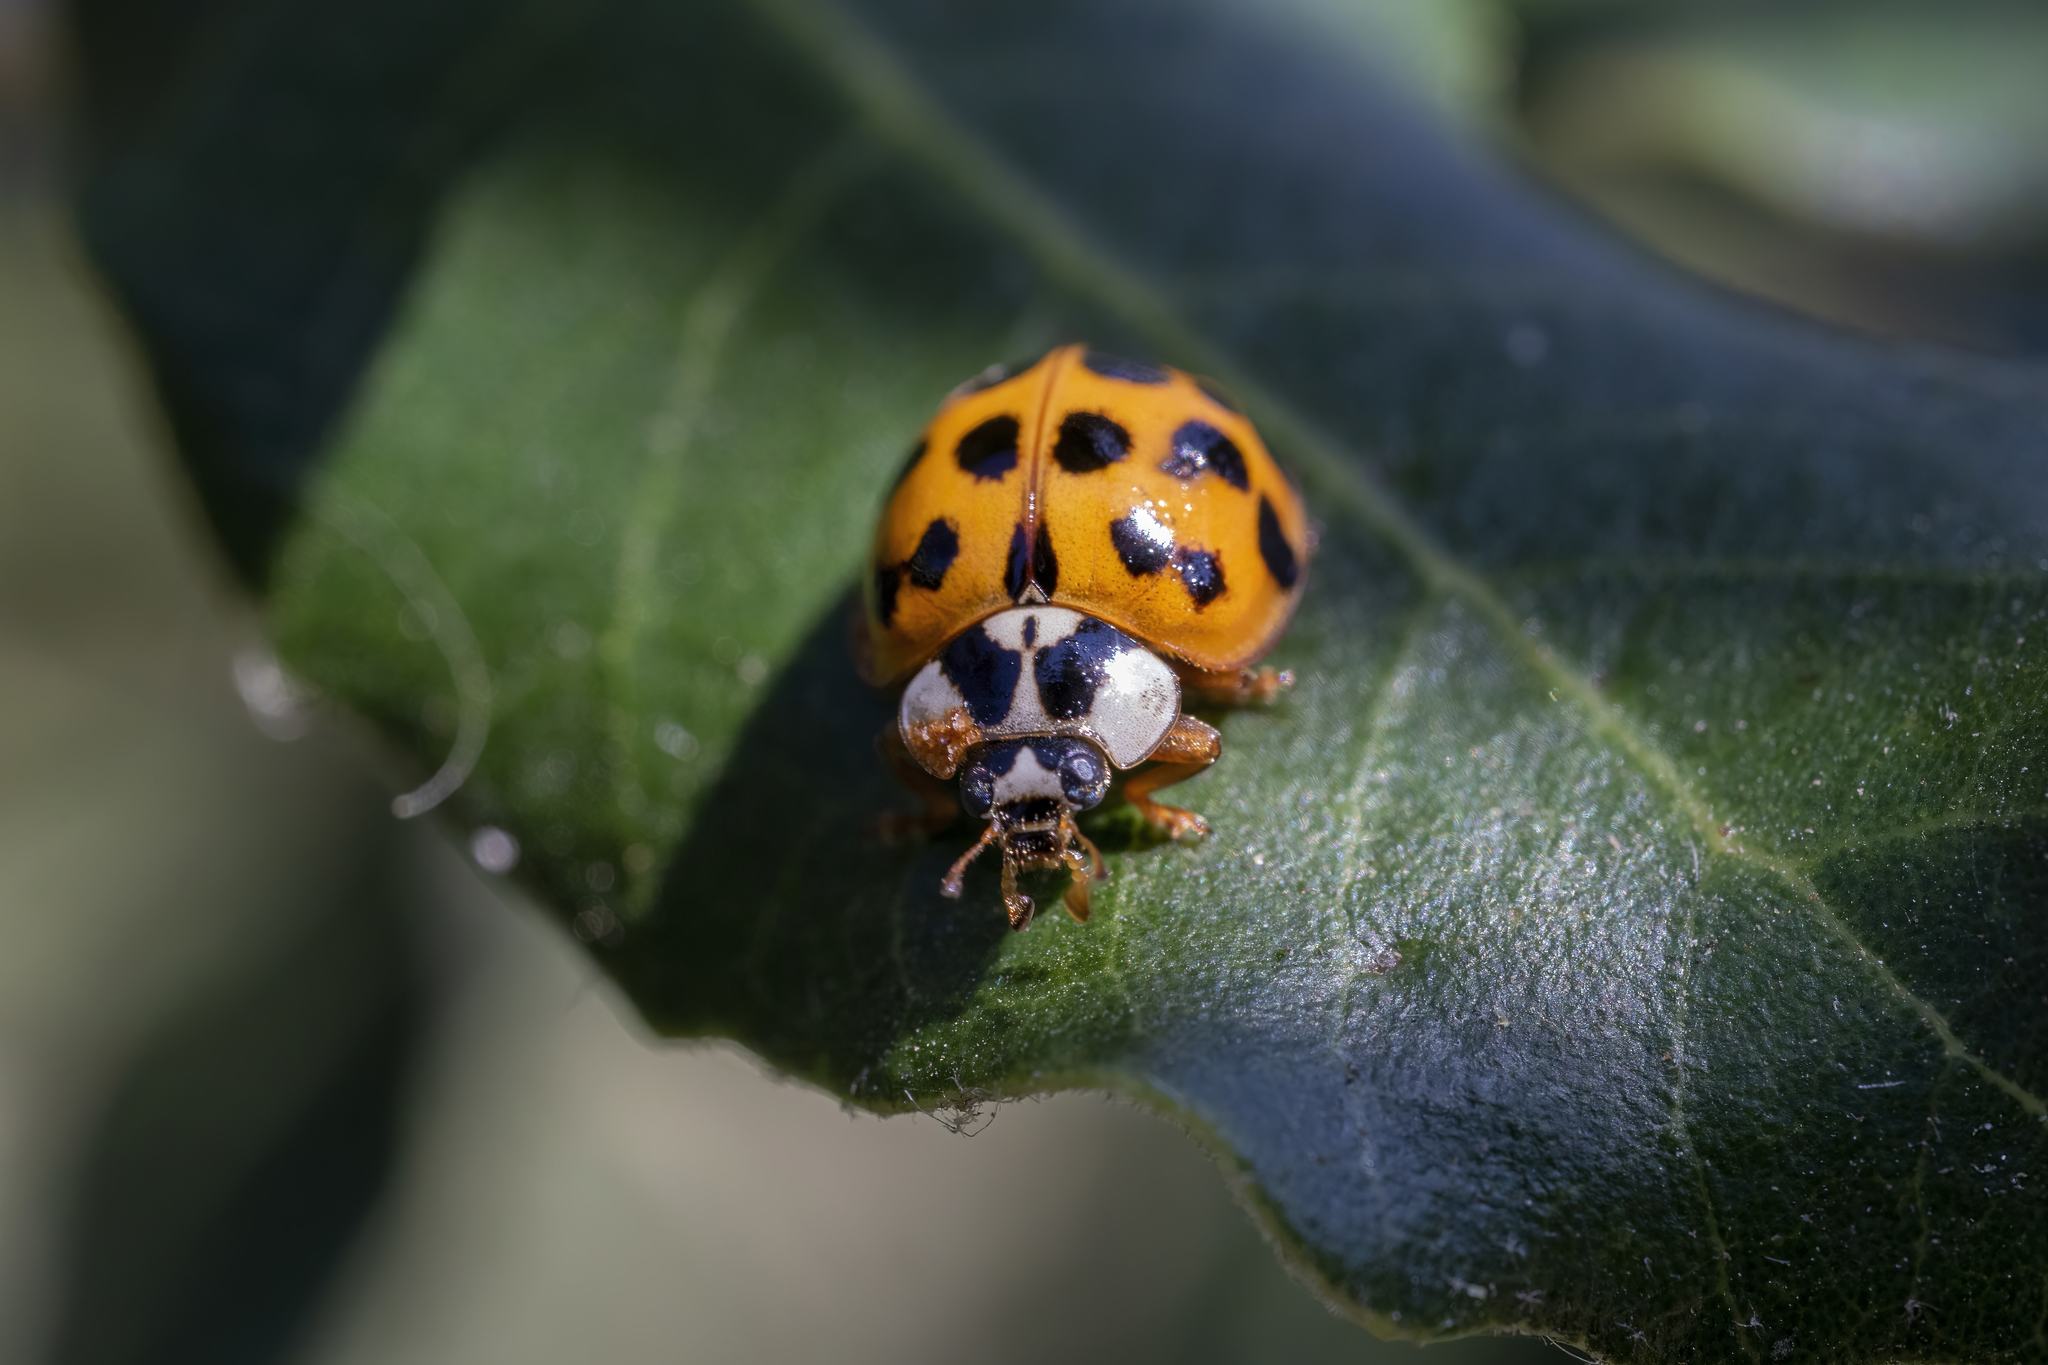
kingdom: Animalia
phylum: Arthropoda
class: Insecta
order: Coleoptera
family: Coccinellidae
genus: Harmonia
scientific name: Harmonia axyridis
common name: Harlequin ladybird
